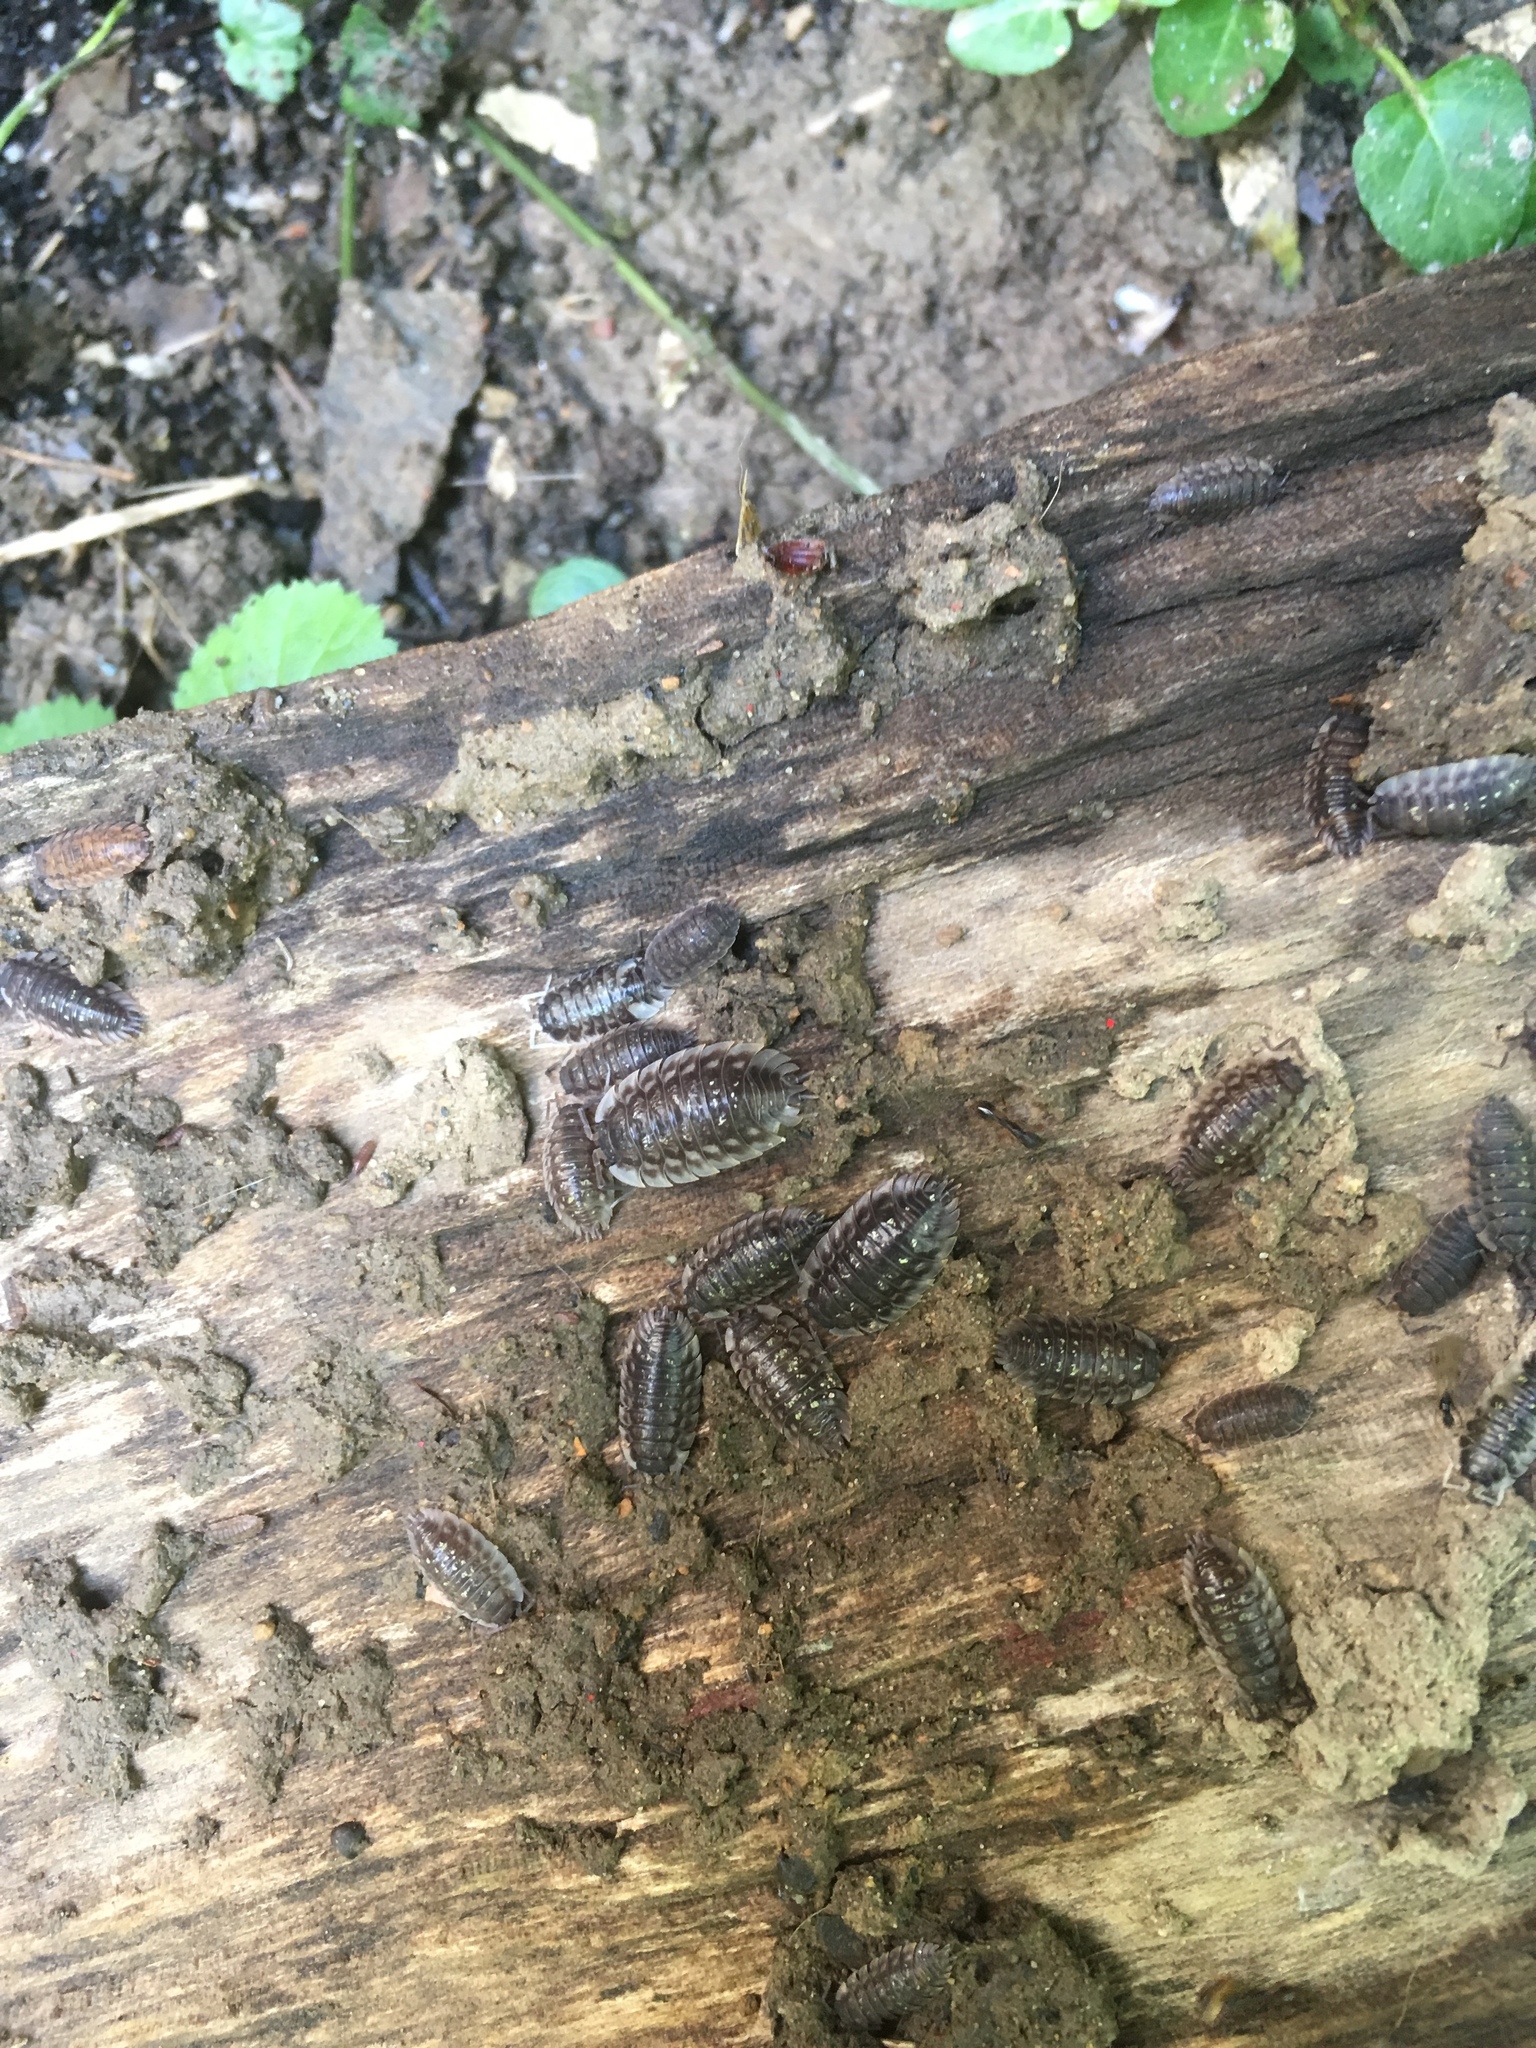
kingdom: Animalia
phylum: Arthropoda
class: Malacostraca
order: Isopoda
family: Oniscidae
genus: Oniscus
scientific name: Oniscus asellus
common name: Common shiny woodlouse
